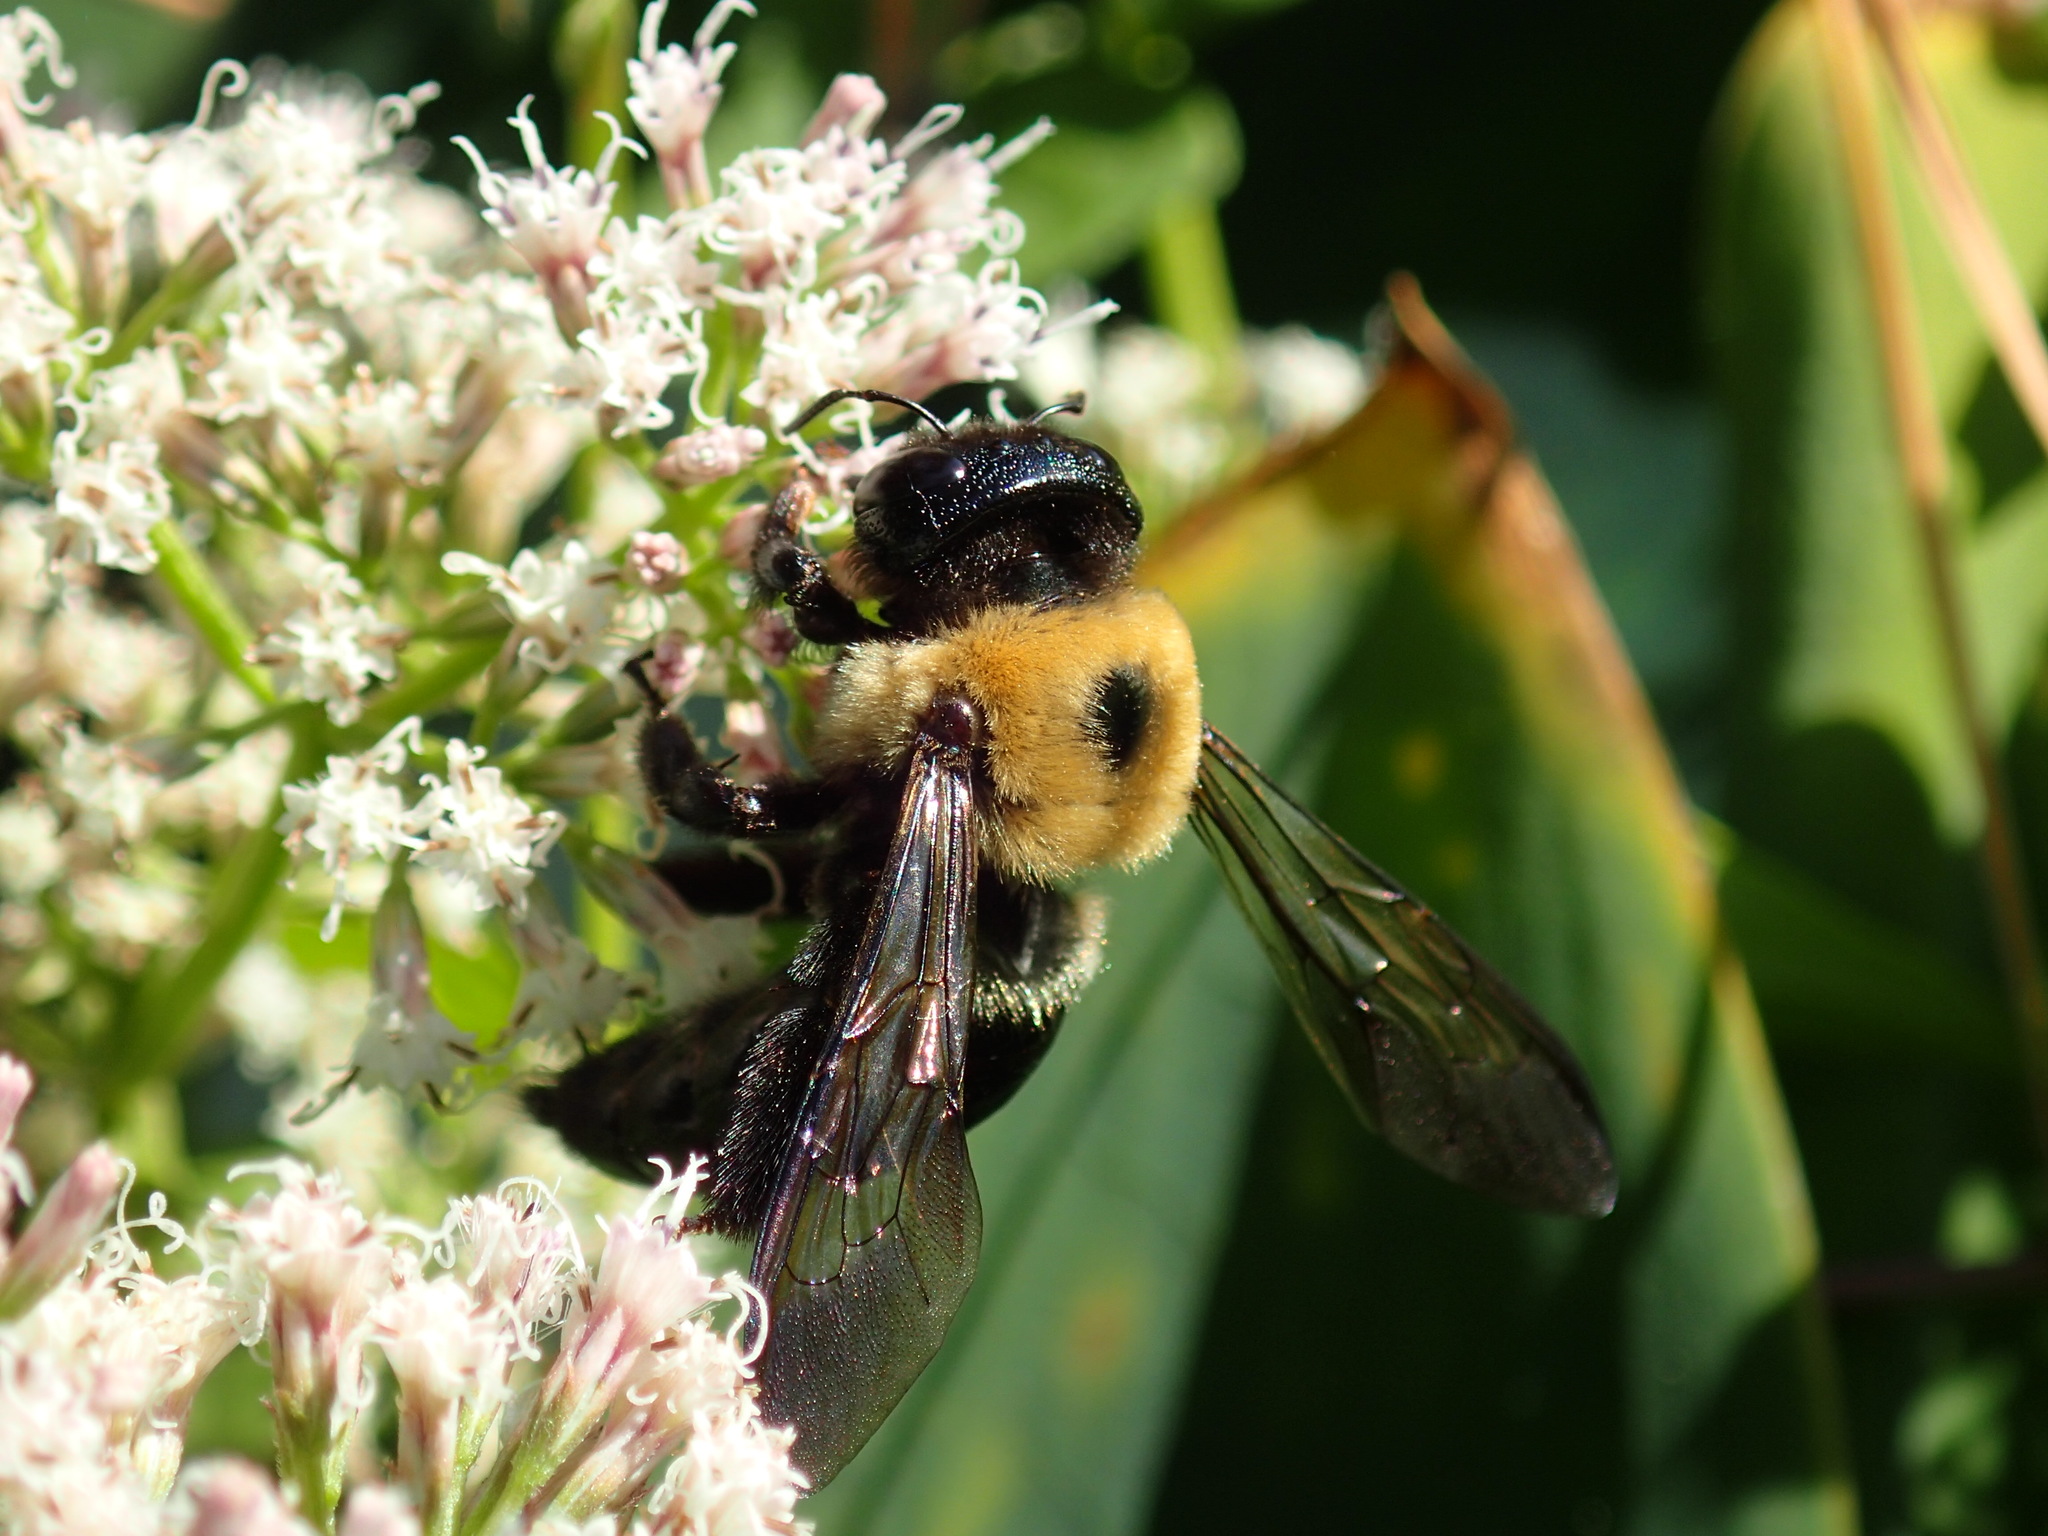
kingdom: Animalia
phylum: Arthropoda
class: Insecta
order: Hymenoptera
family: Apidae
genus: Xylocopa
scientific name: Xylocopa virginica
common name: Carpenter bee
